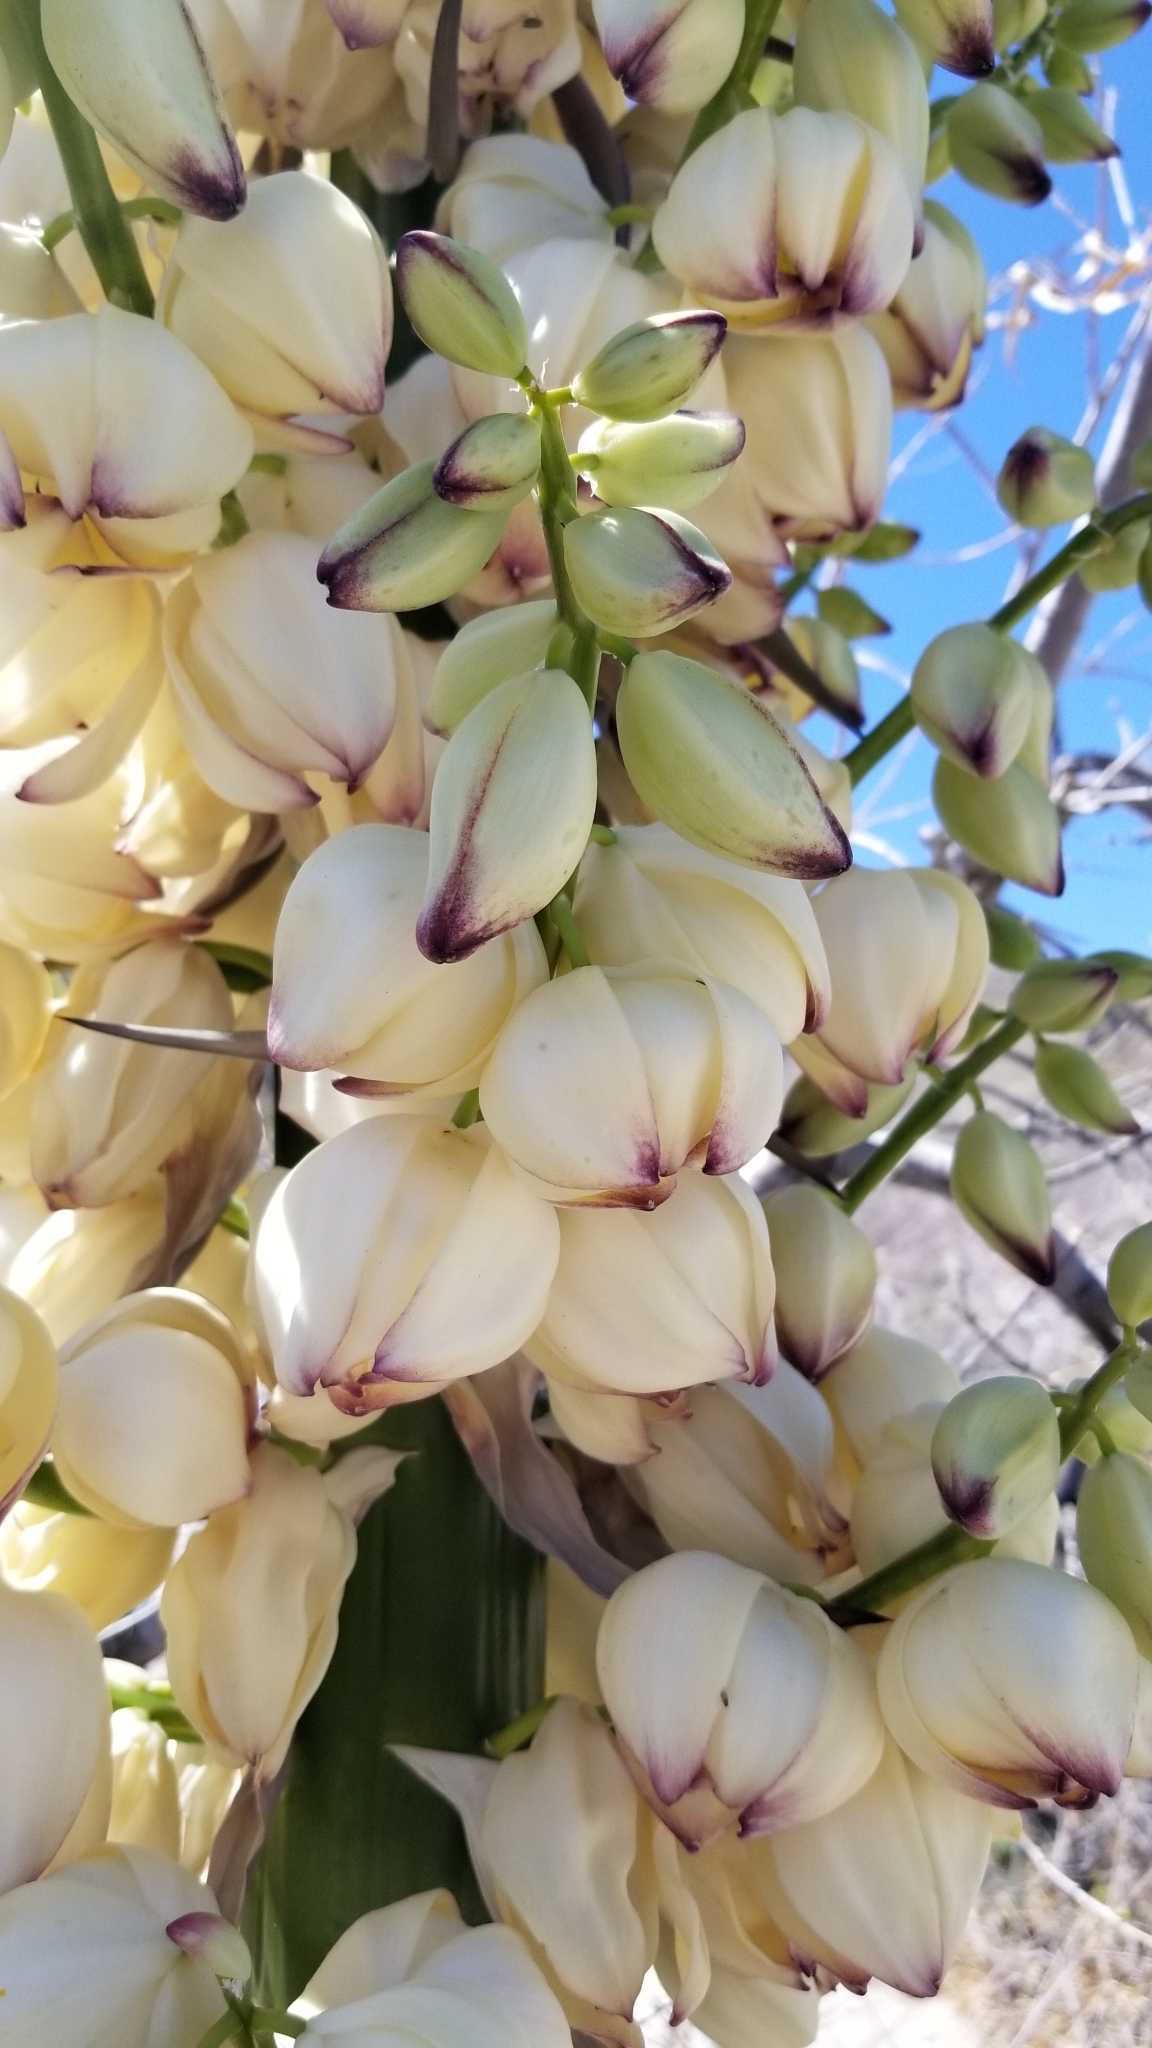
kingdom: Plantae
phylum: Tracheophyta
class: Liliopsida
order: Asparagales
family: Asparagaceae
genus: Hesperoyucca
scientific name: Hesperoyucca whipplei
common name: Our lord's-candle
